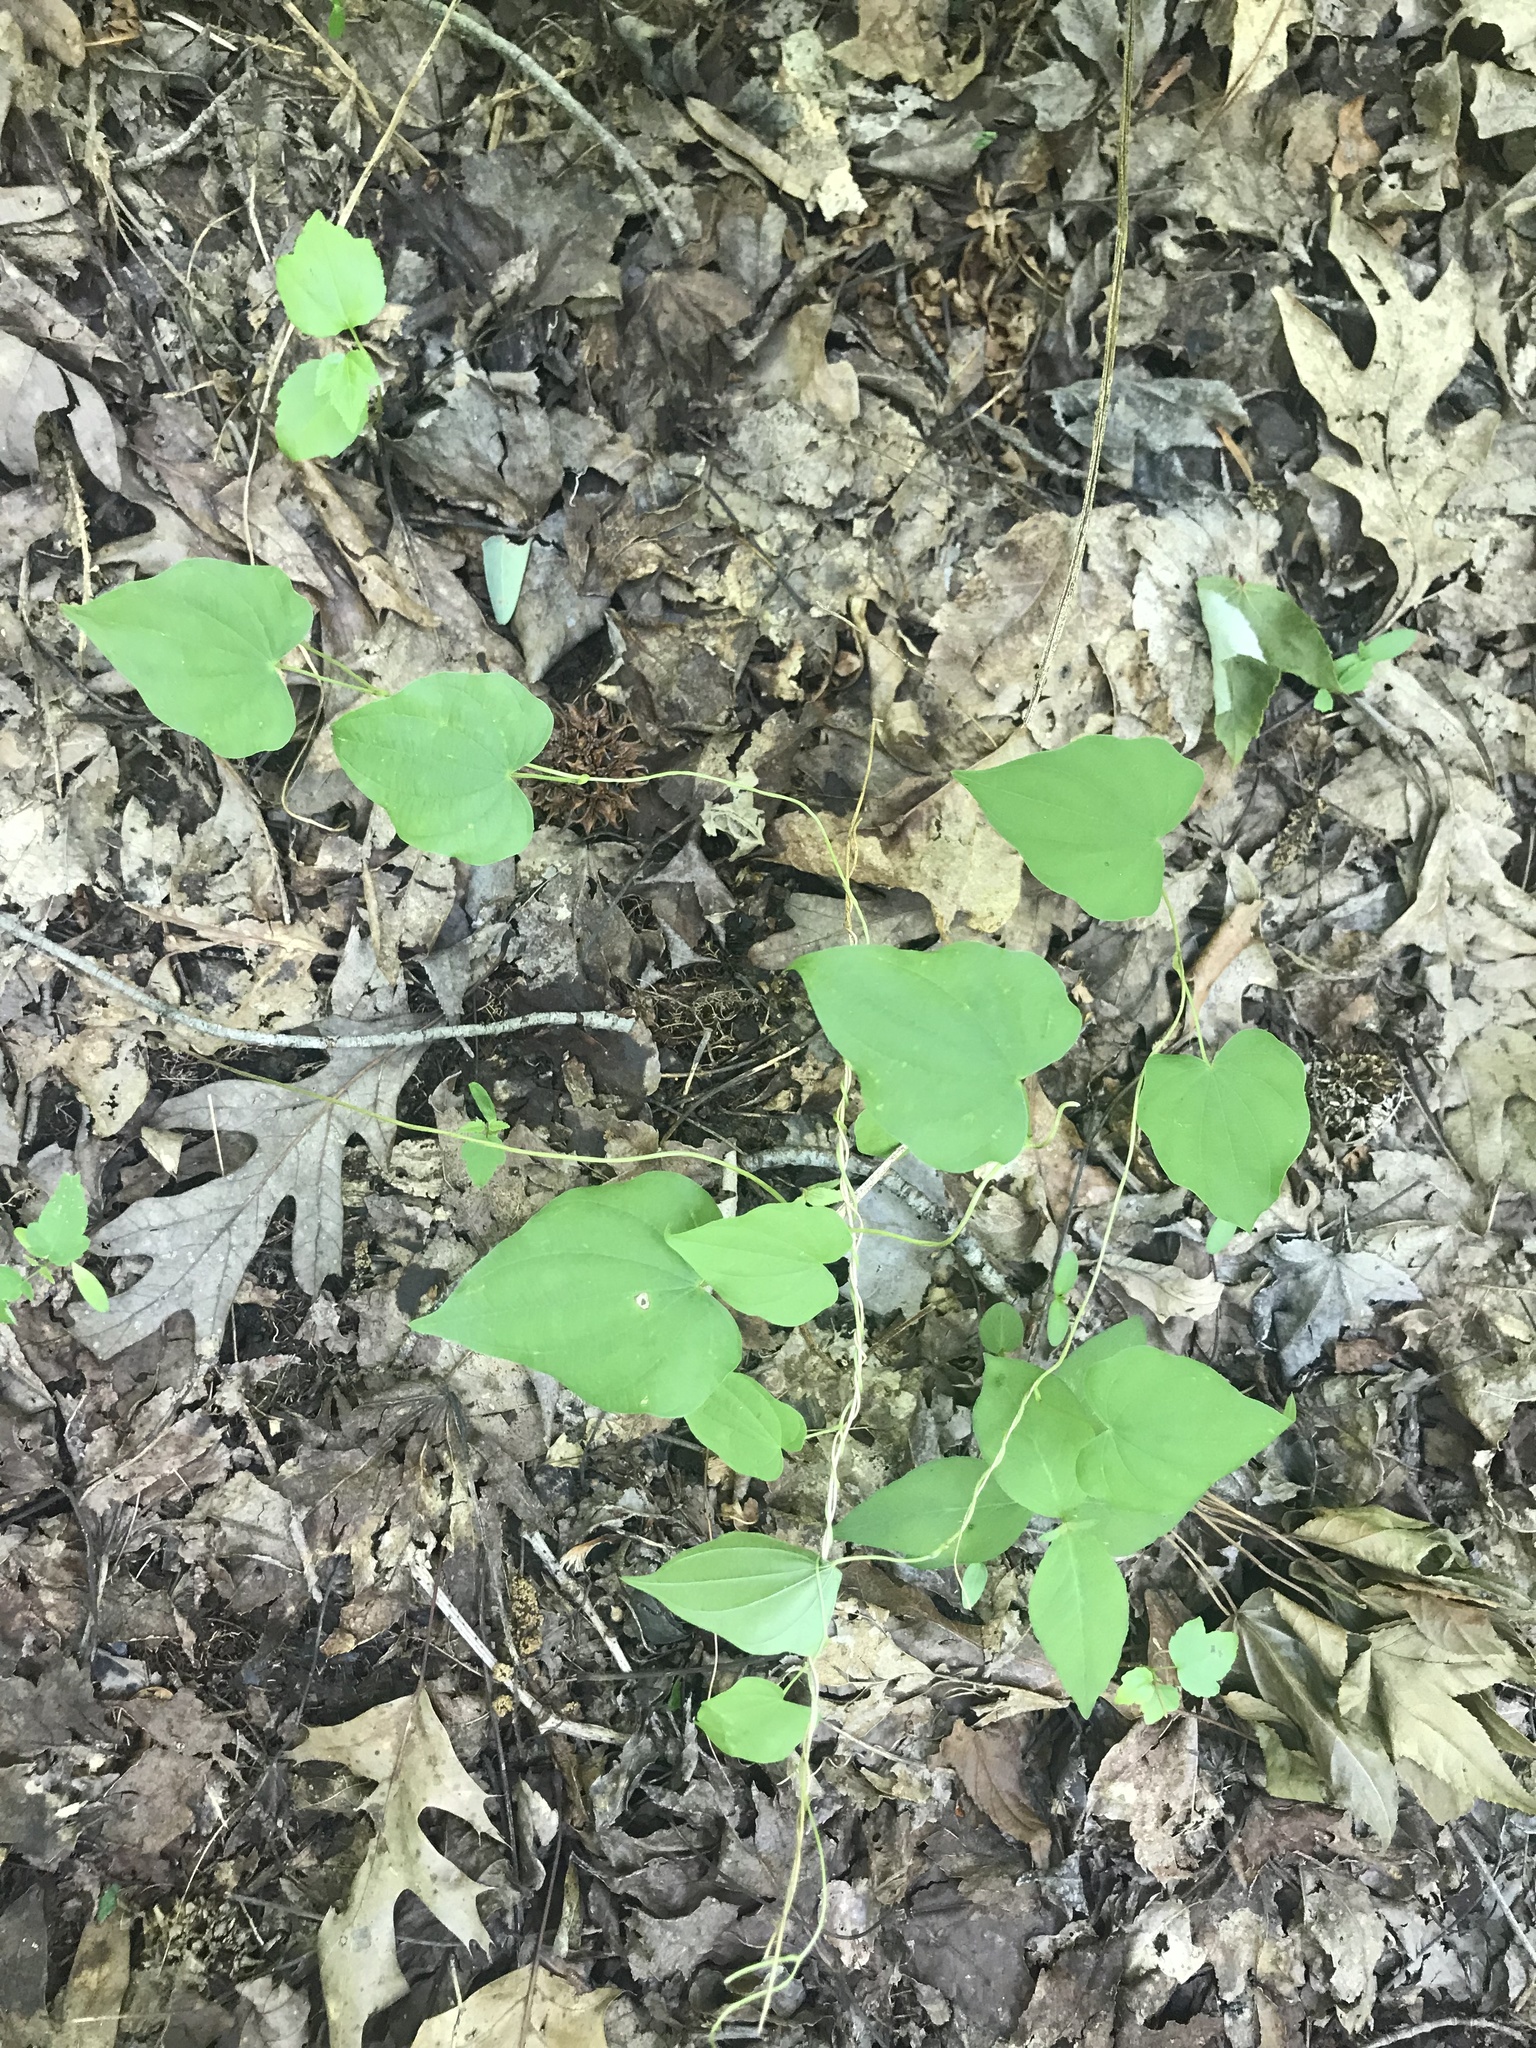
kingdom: Plantae
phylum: Tracheophyta
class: Liliopsida
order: Dioscoreales
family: Dioscoreaceae
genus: Dioscorea
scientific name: Dioscorea villosa
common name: Wild yam
